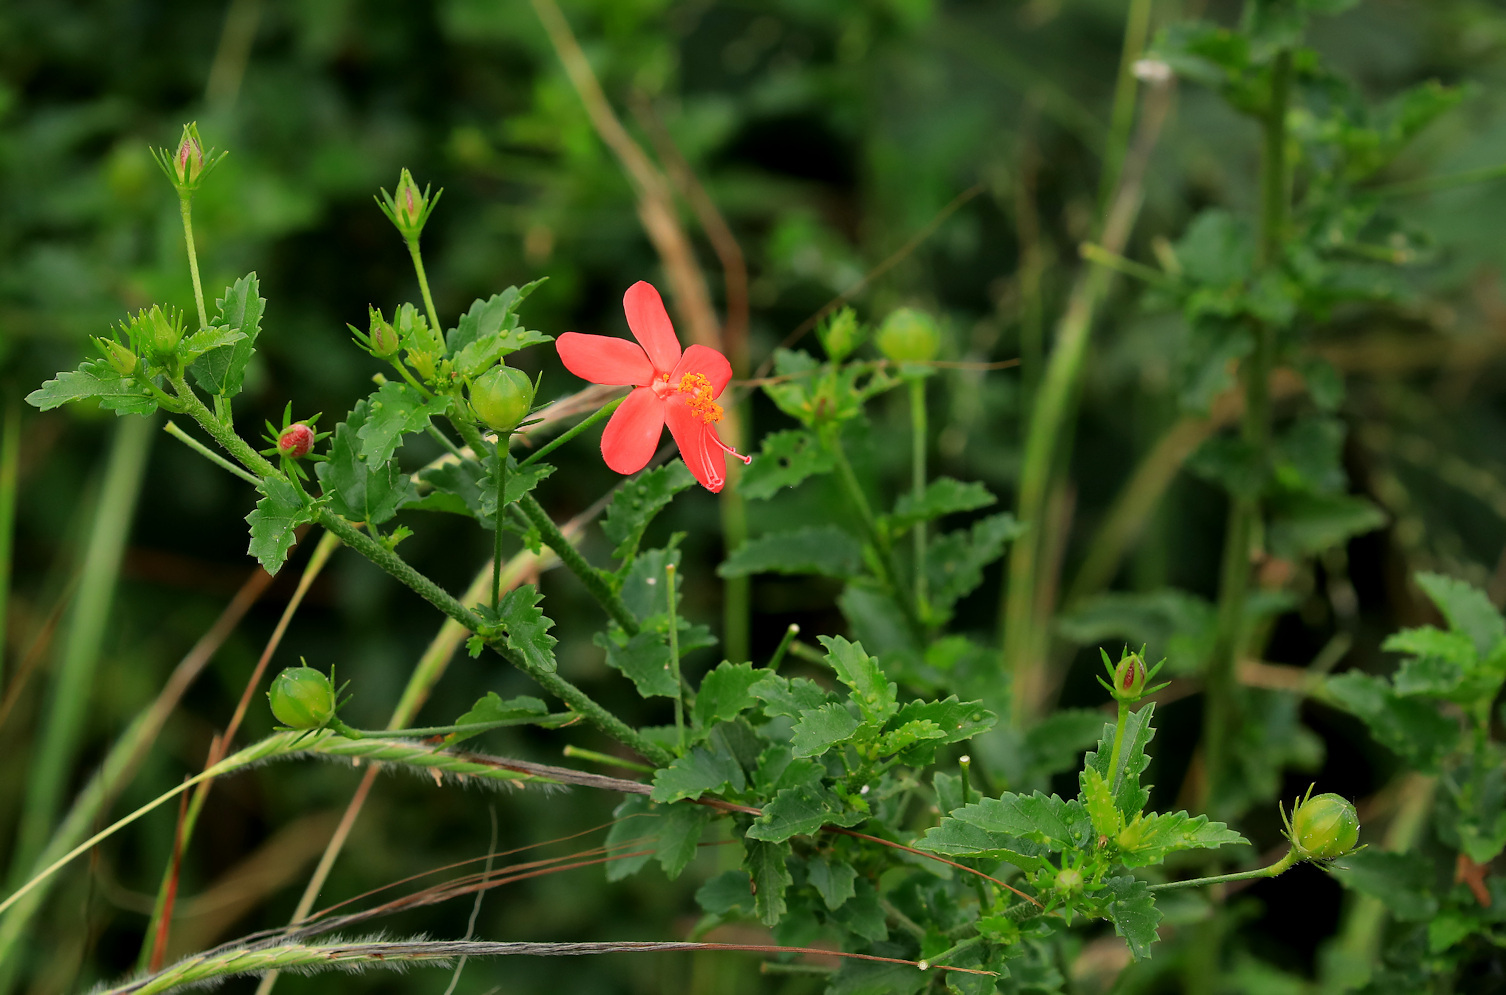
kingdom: Plantae
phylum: Tracheophyta
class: Magnoliopsida
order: Malvales
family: Malvaceae
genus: Hibiscus
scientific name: Hibiscus praeteritus
